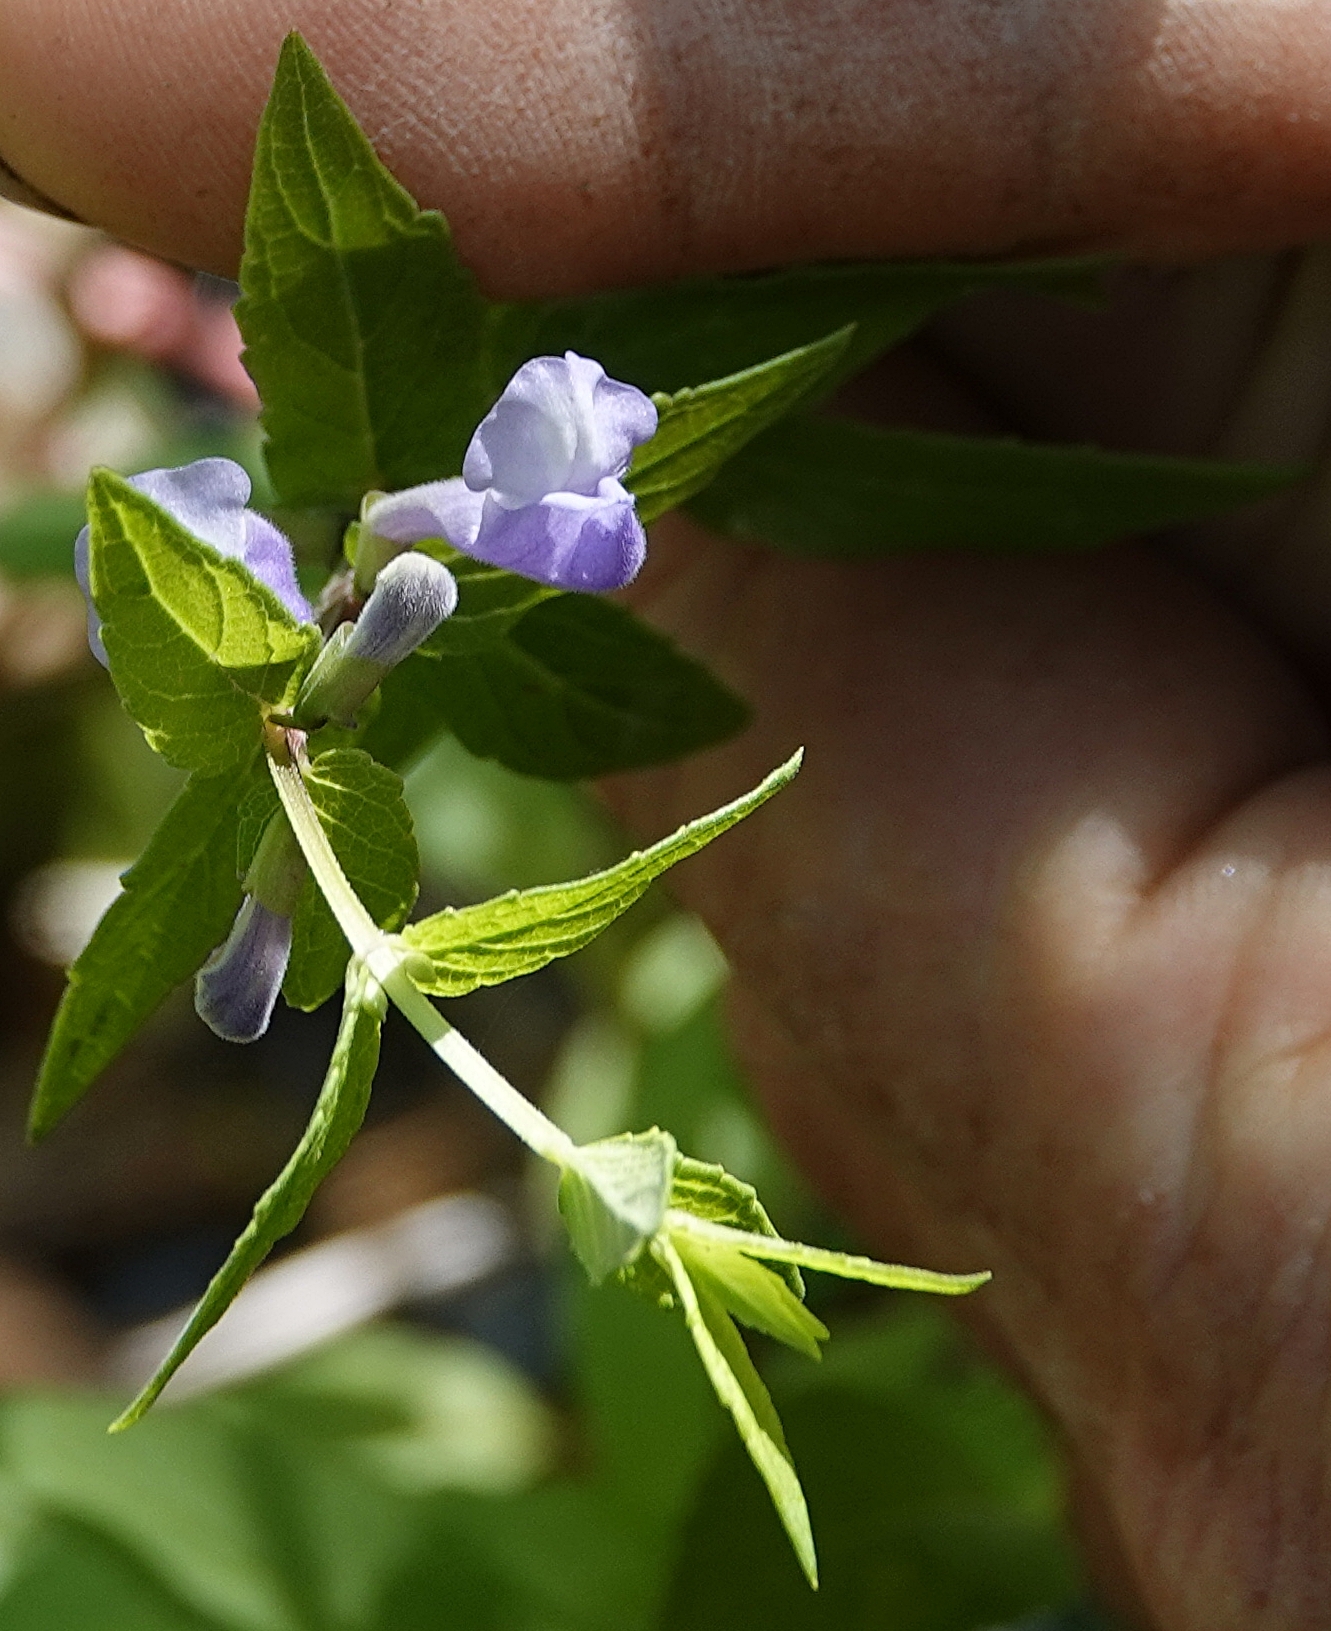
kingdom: Plantae
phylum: Tracheophyta
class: Magnoliopsida
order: Lamiales
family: Lamiaceae
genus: Scutellaria
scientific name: Scutellaria galericulata
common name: Skullcap
